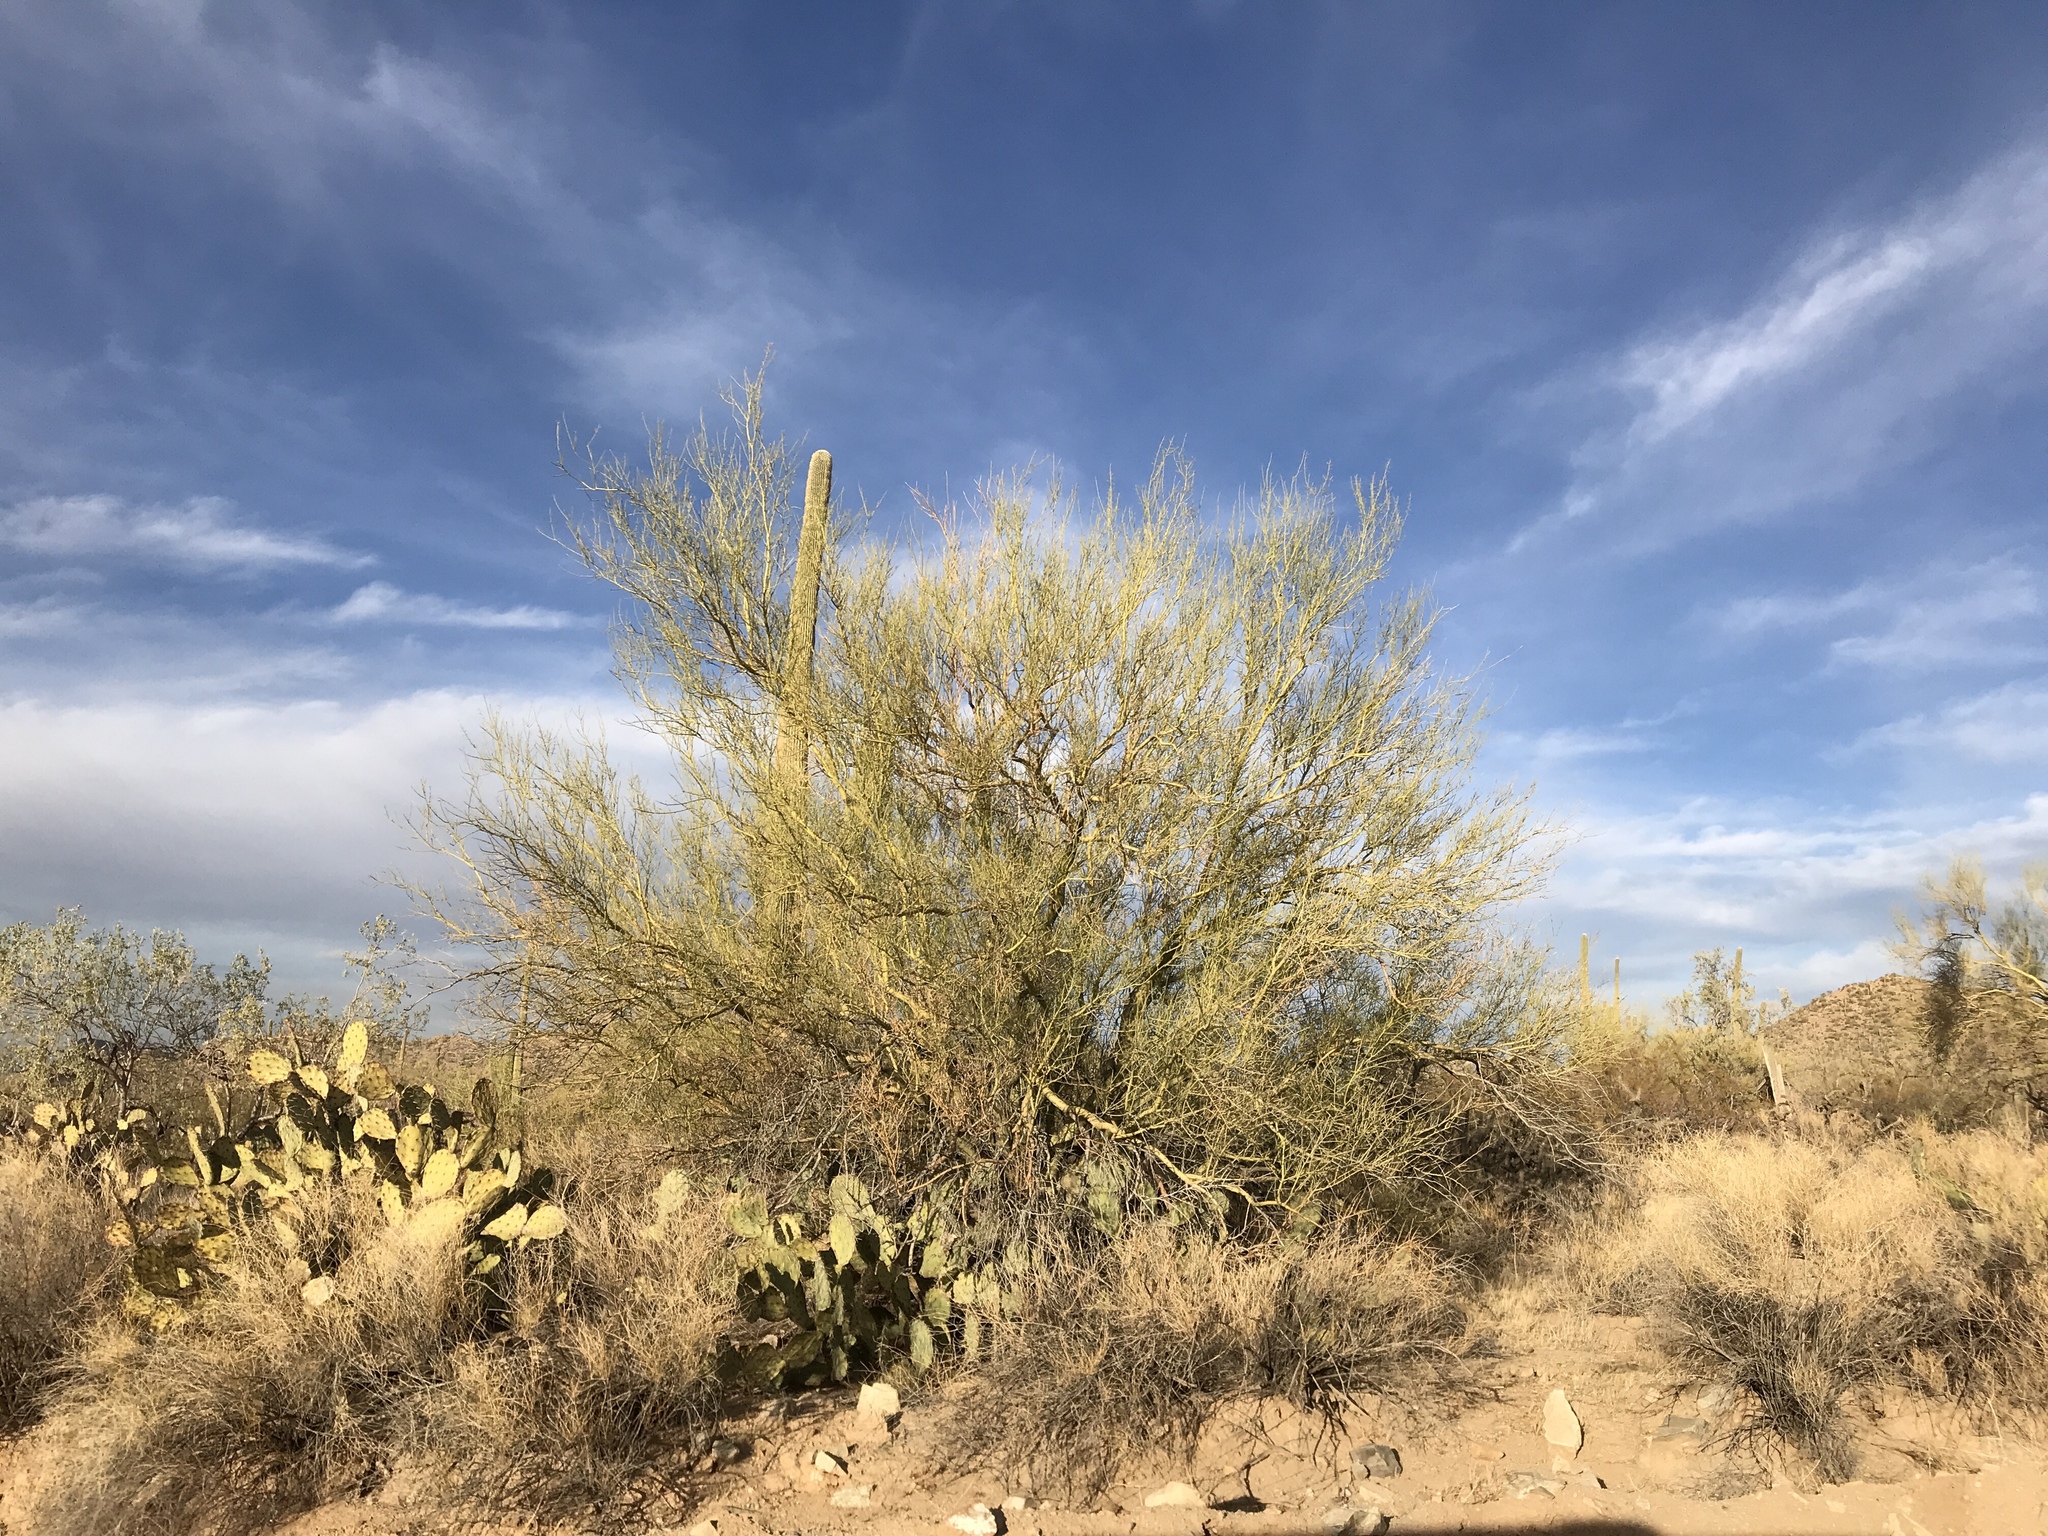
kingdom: Plantae
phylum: Tracheophyta
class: Magnoliopsida
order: Fabales
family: Fabaceae
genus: Parkinsonia
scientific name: Parkinsonia microphylla
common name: Yellow paloverde
